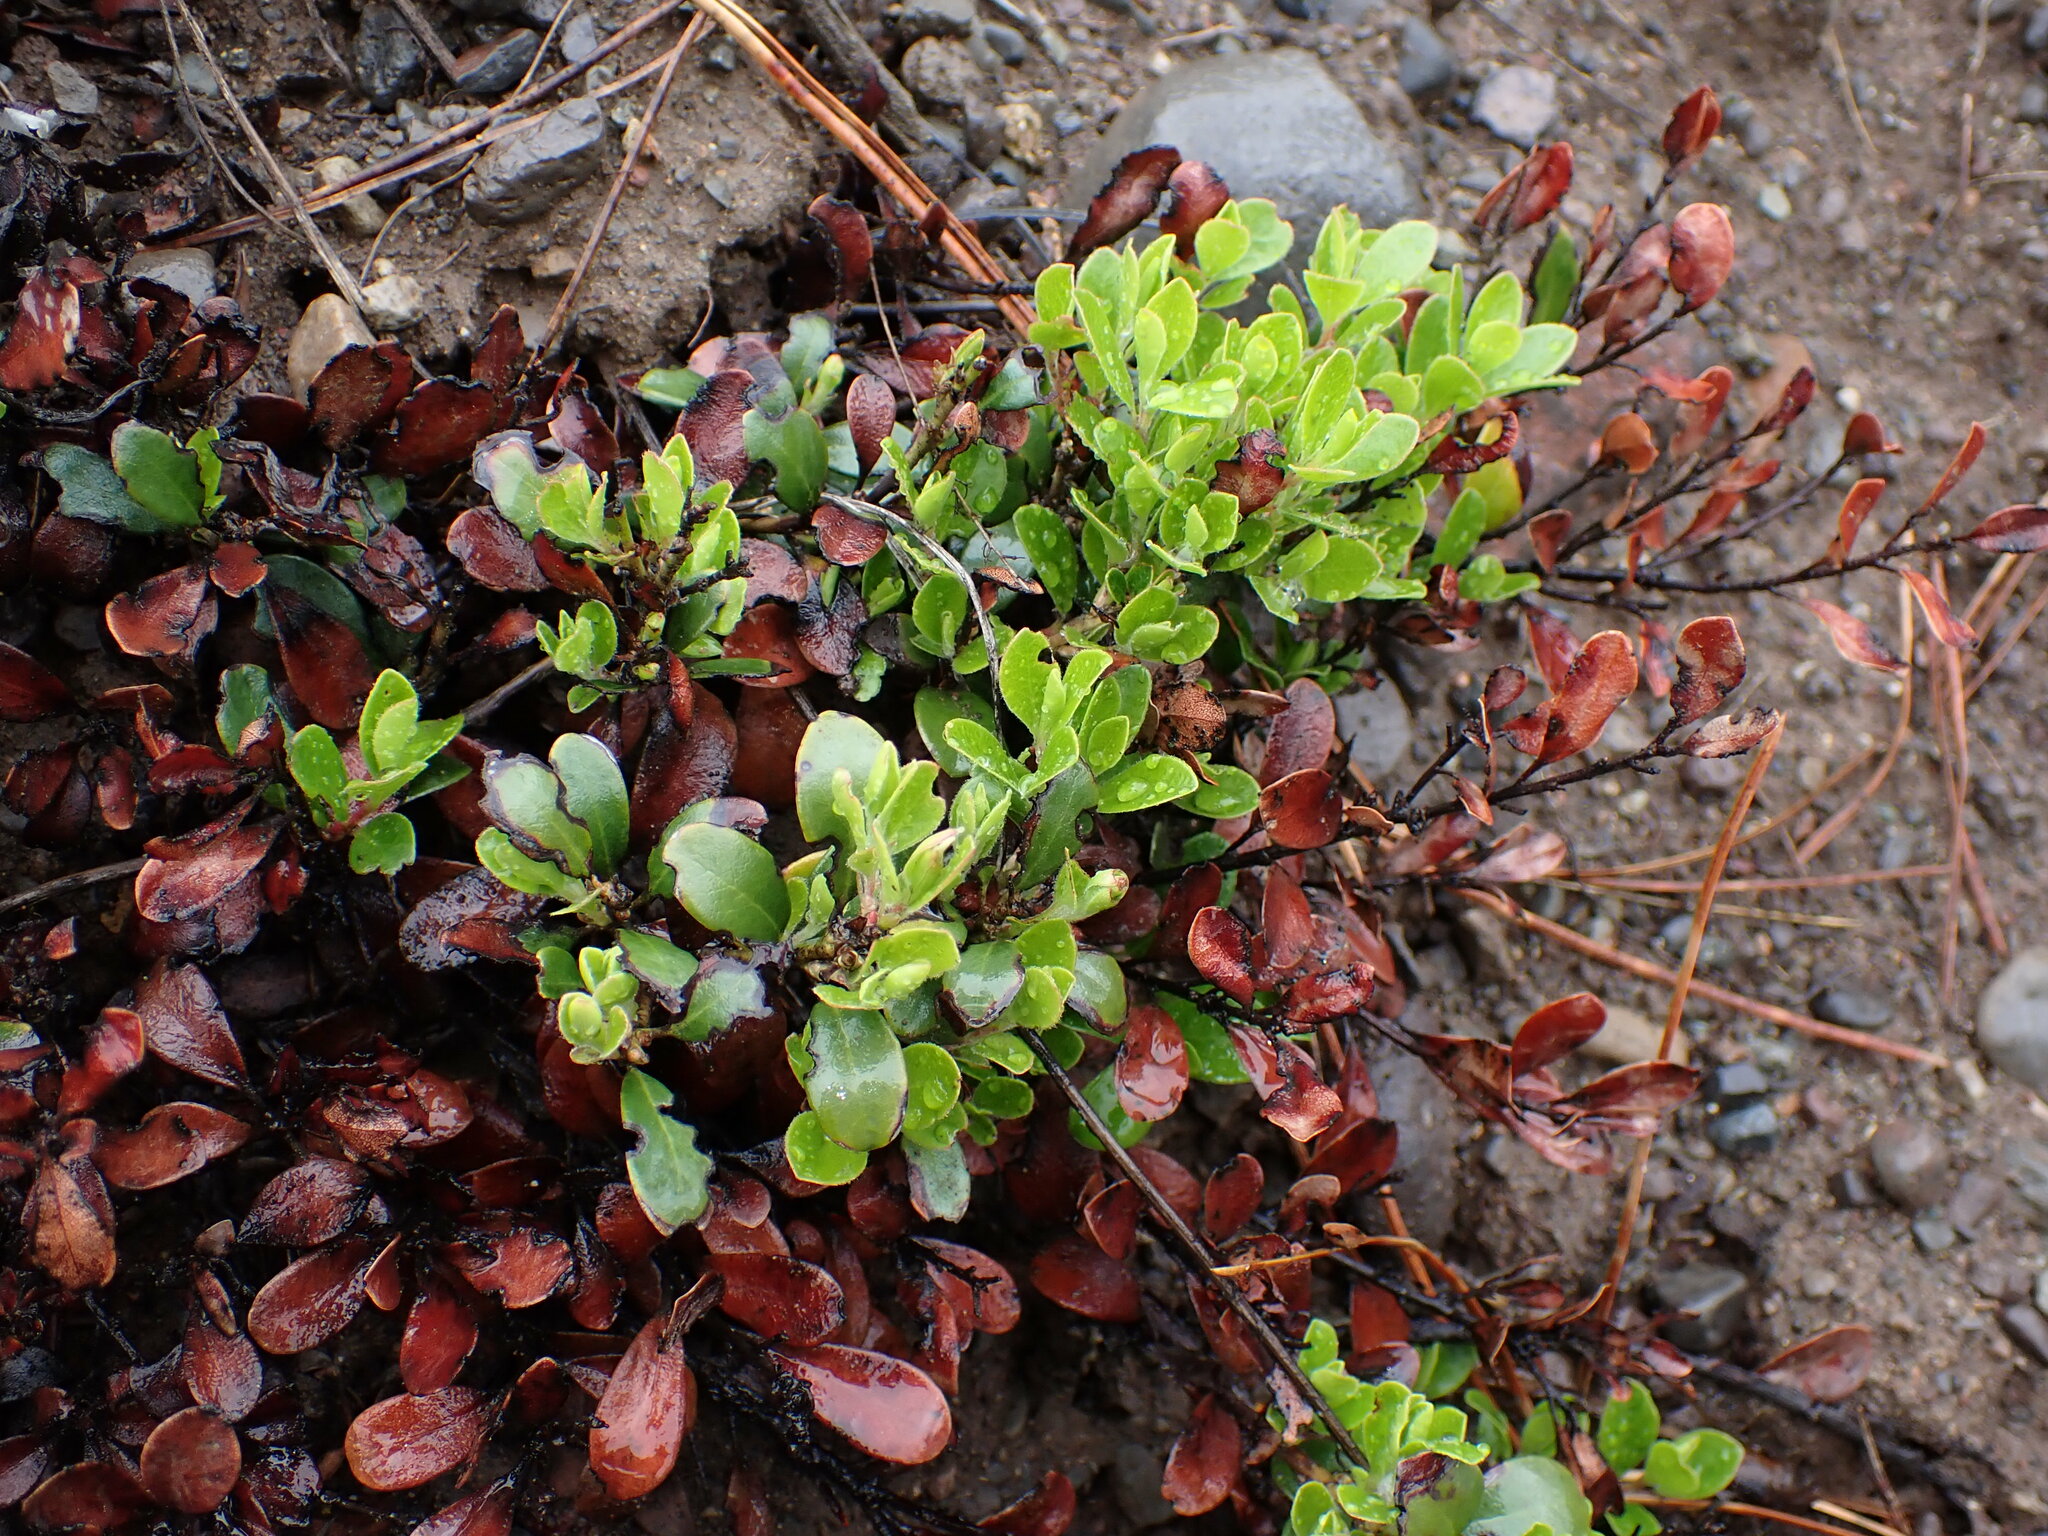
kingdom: Plantae
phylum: Tracheophyta
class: Magnoliopsida
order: Ericales
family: Ericaceae
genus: Arctostaphylos
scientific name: Arctostaphylos uva-ursi
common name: Bearberry
